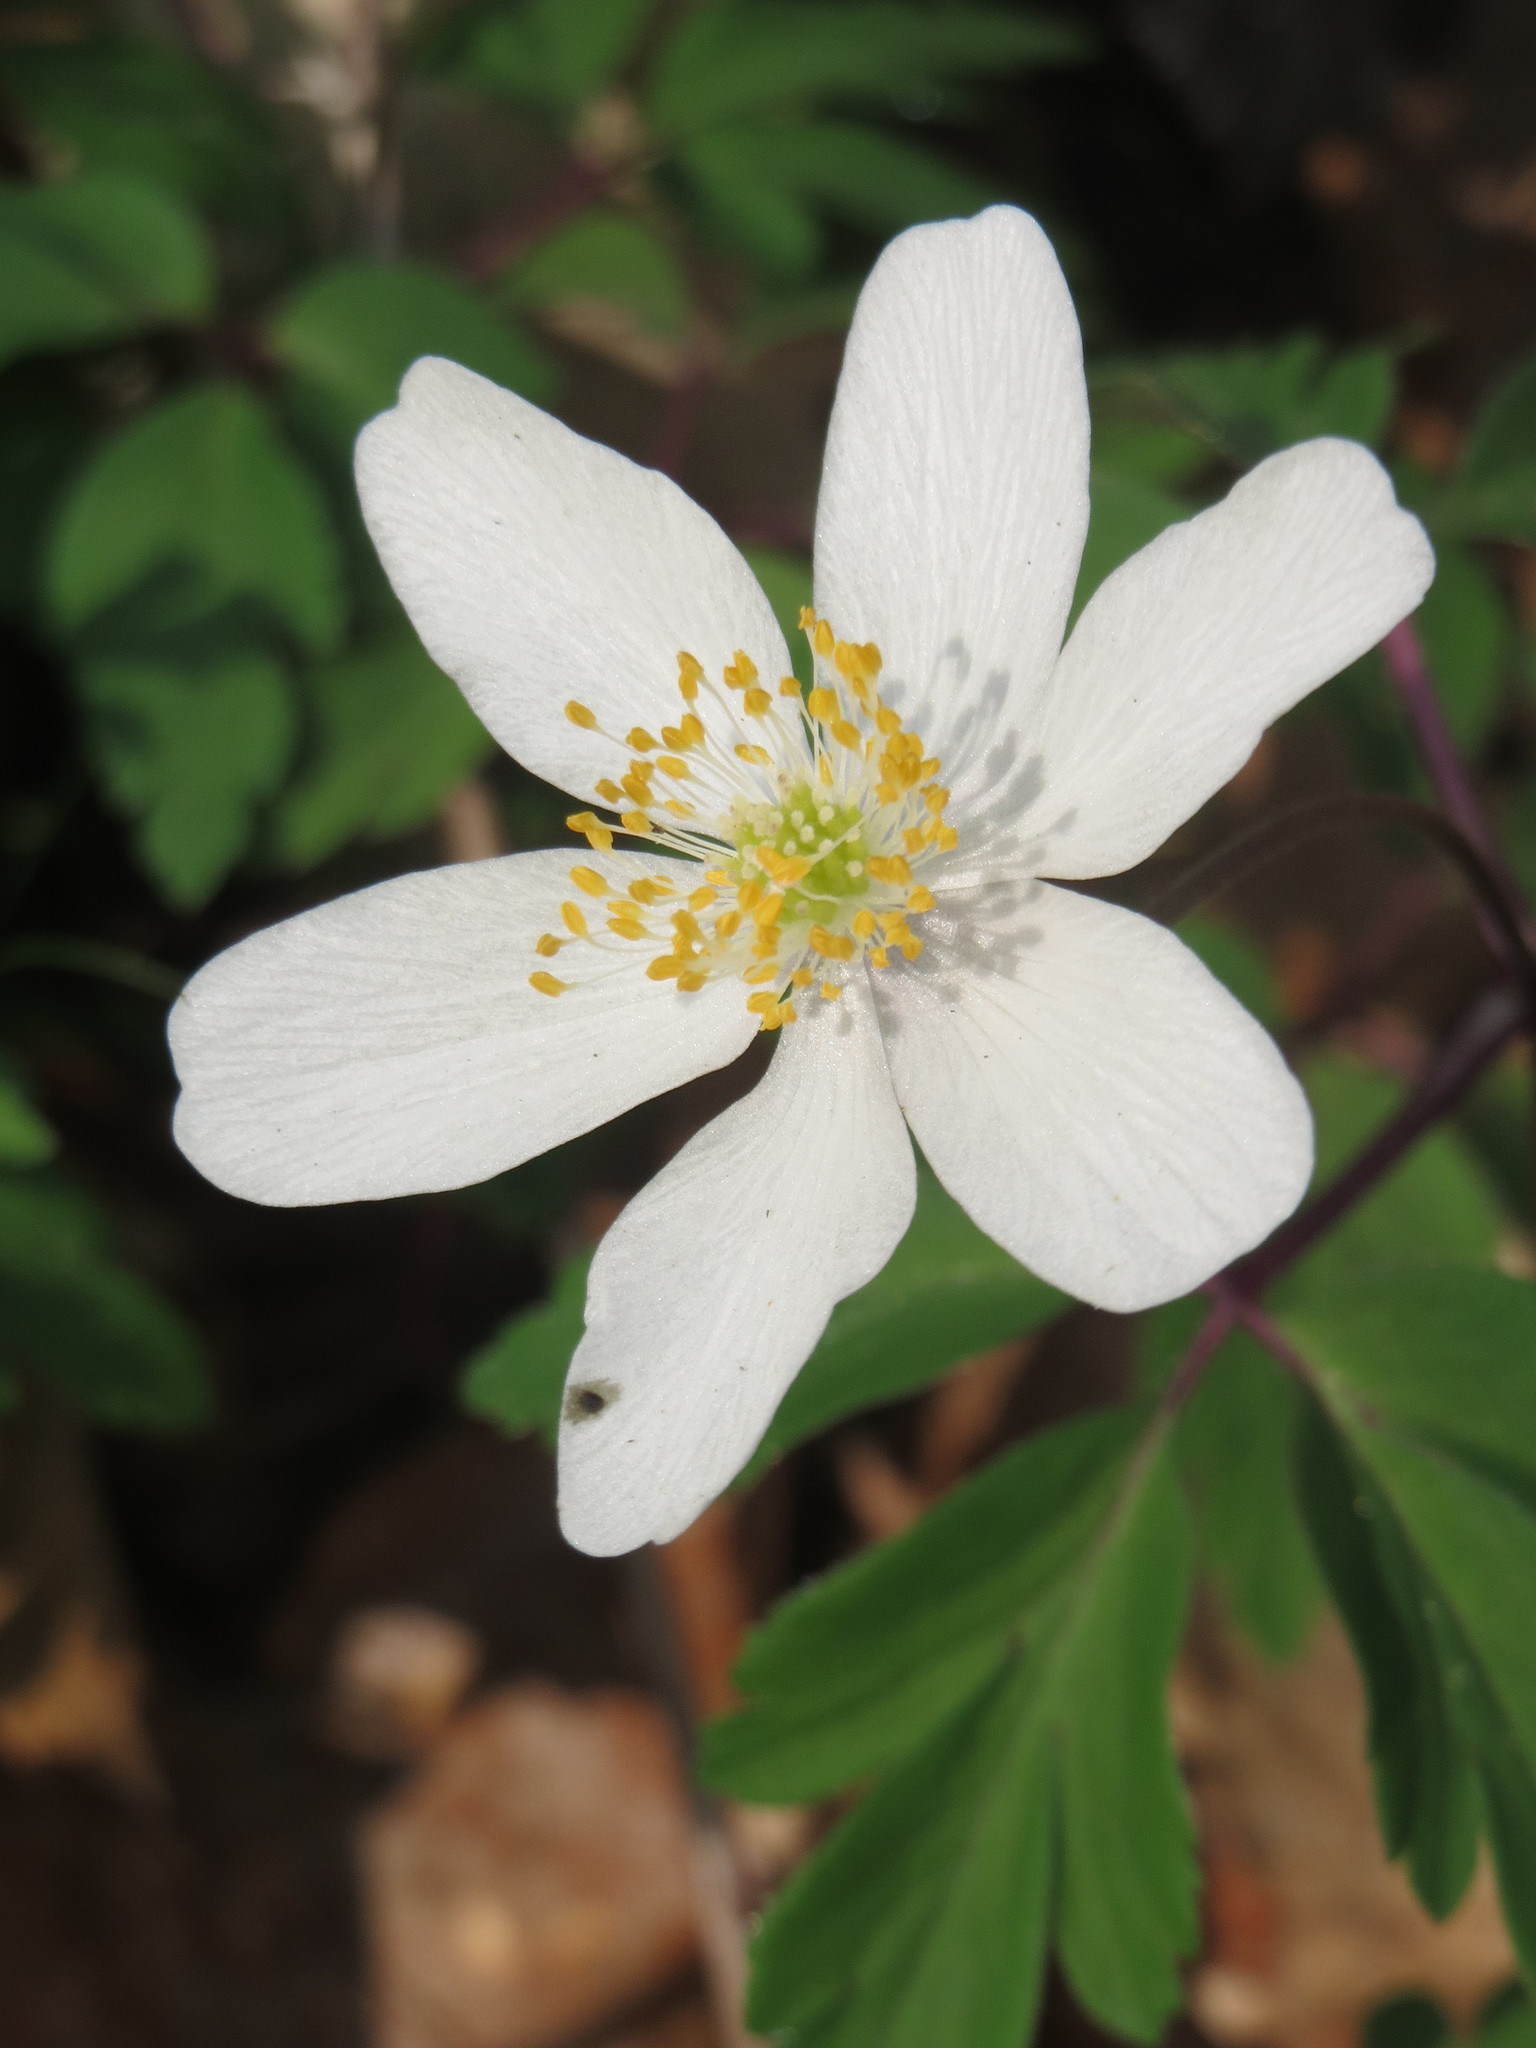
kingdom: Plantae
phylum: Tracheophyta
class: Magnoliopsida
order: Ranunculales
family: Ranunculaceae
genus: Anemone
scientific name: Anemone nemorosa
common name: Wood anemone
